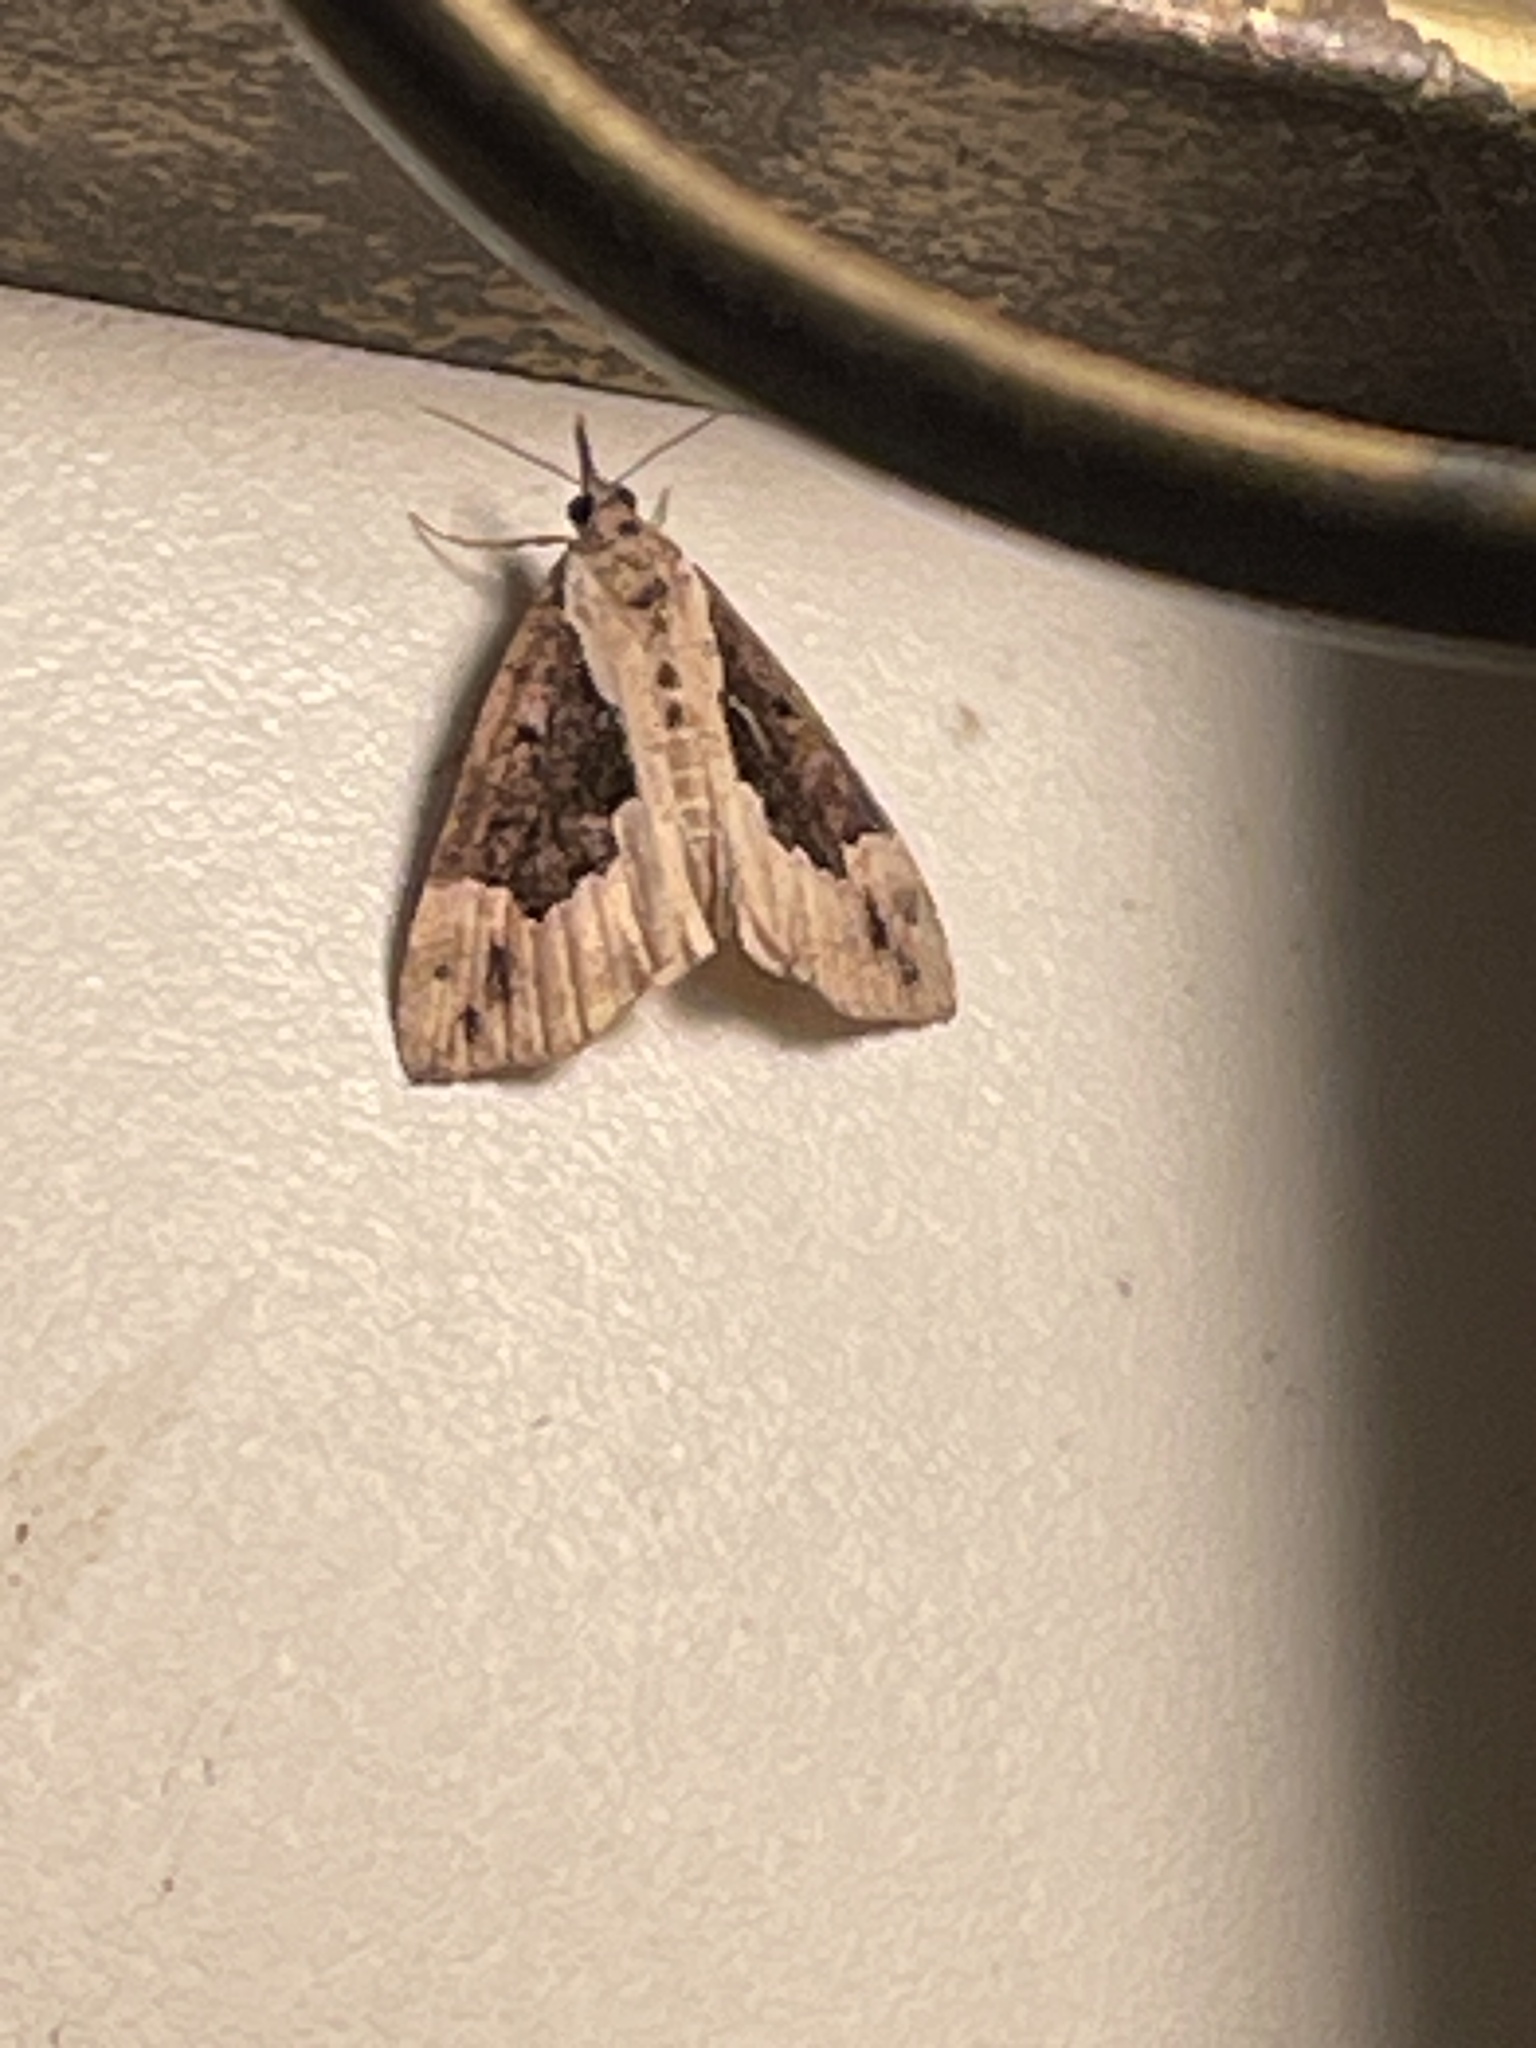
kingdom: Animalia
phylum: Arthropoda
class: Insecta
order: Lepidoptera
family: Erebidae
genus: Hypena
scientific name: Hypena baltimoralis
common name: Baltimore snout
